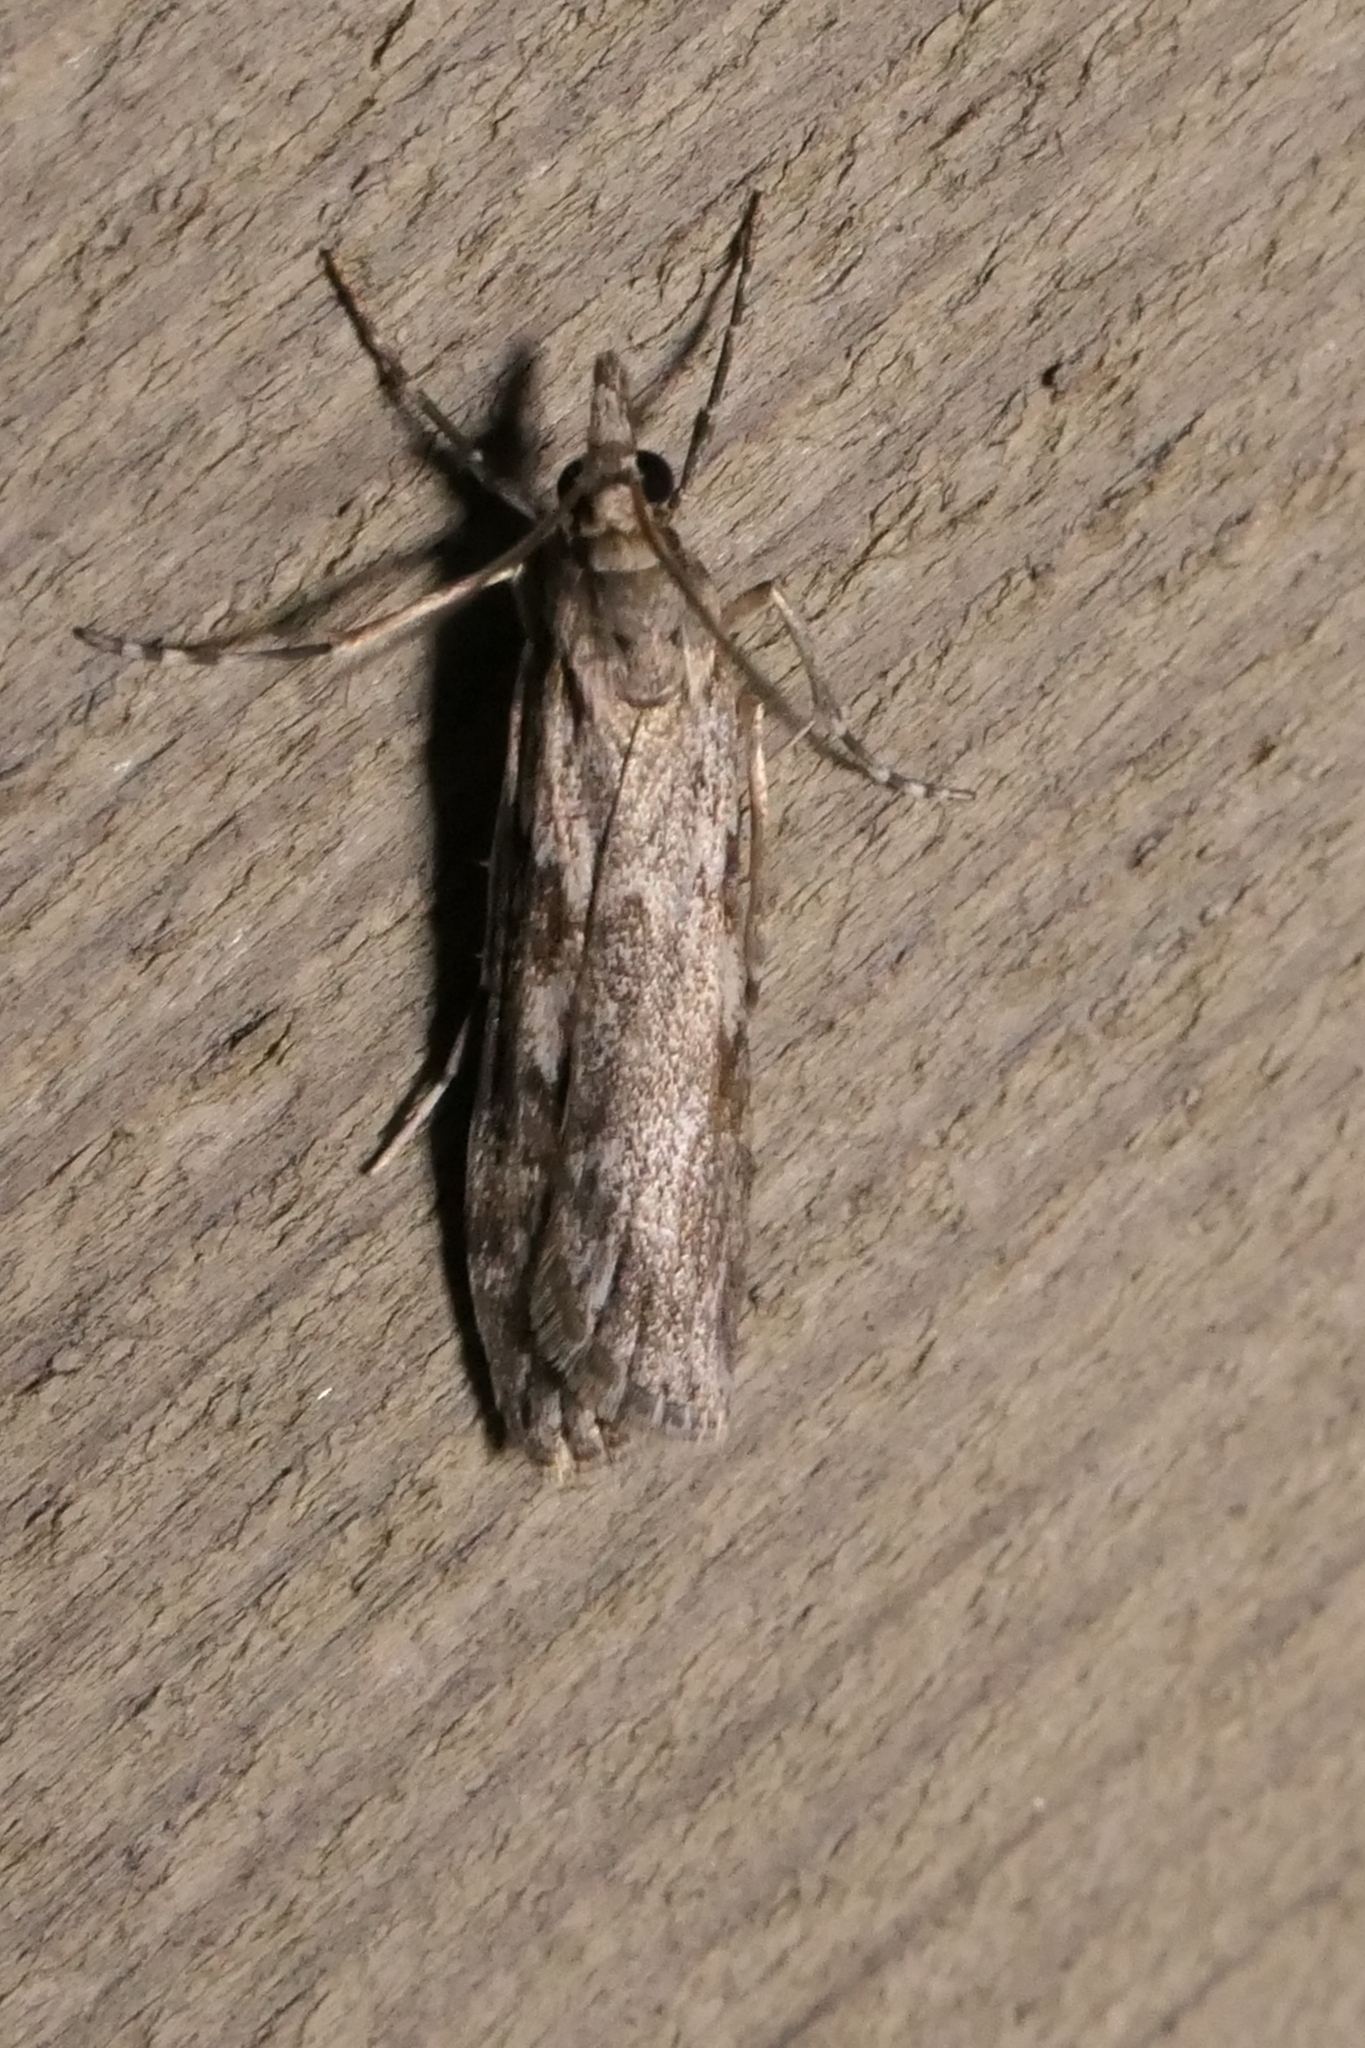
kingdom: Animalia
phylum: Arthropoda
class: Insecta
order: Lepidoptera
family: Crambidae
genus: Scoparia
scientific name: Scoparia halopis
